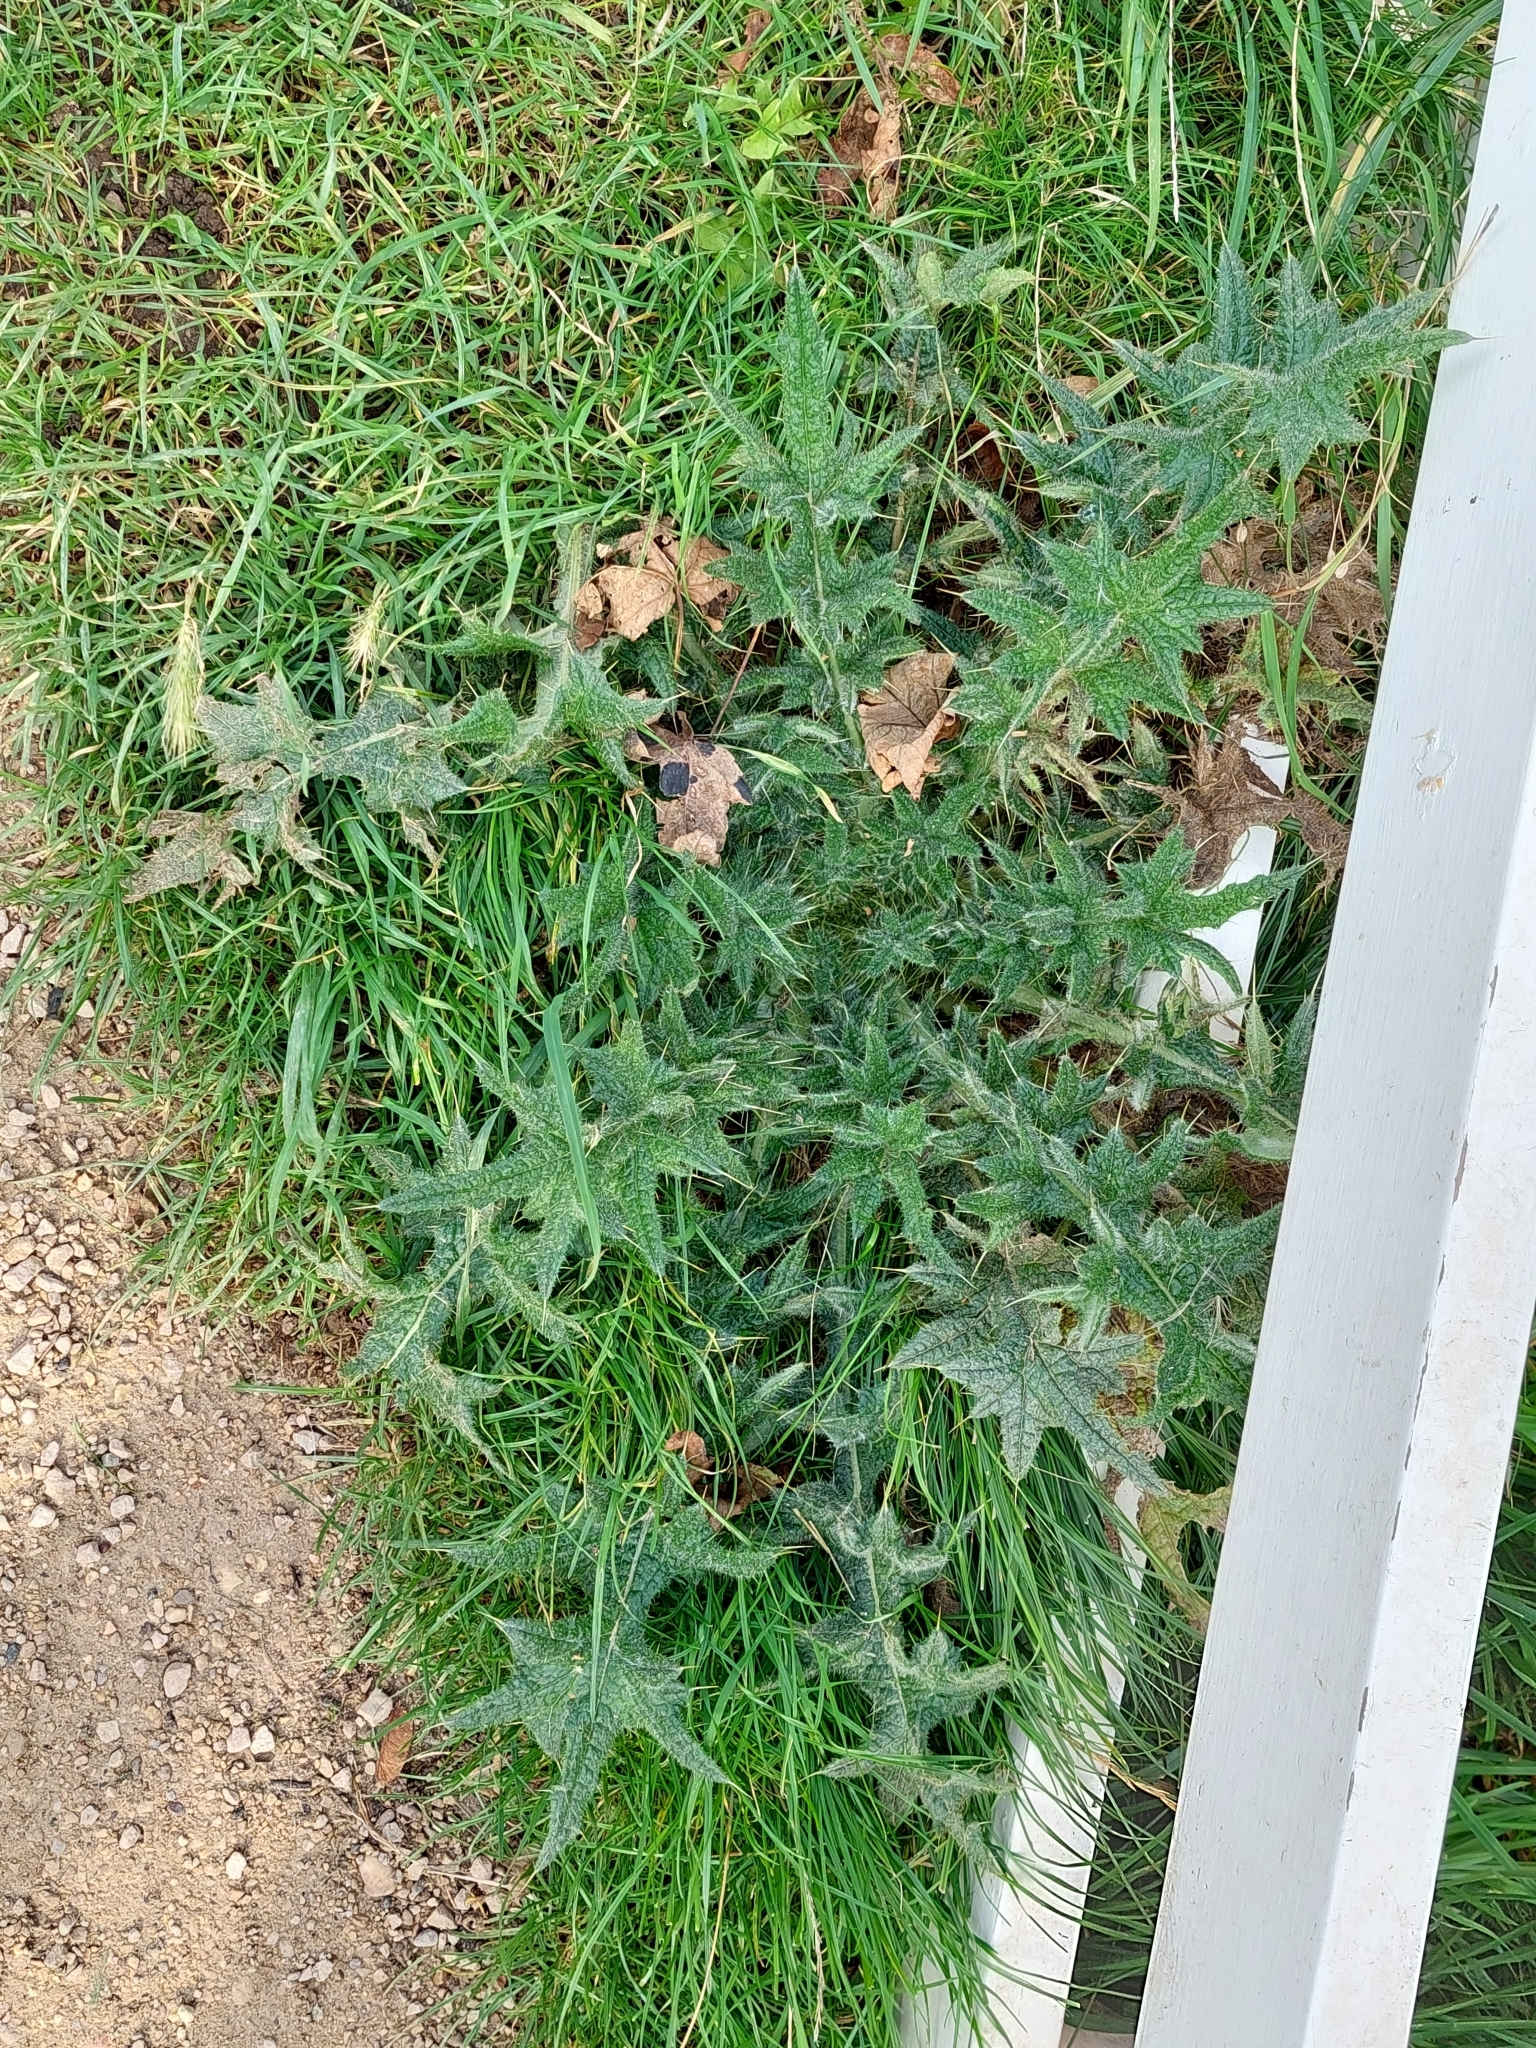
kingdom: Plantae
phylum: Tracheophyta
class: Magnoliopsida
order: Asterales
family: Asteraceae
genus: Cirsium
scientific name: Cirsium vulgare
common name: Bull thistle
